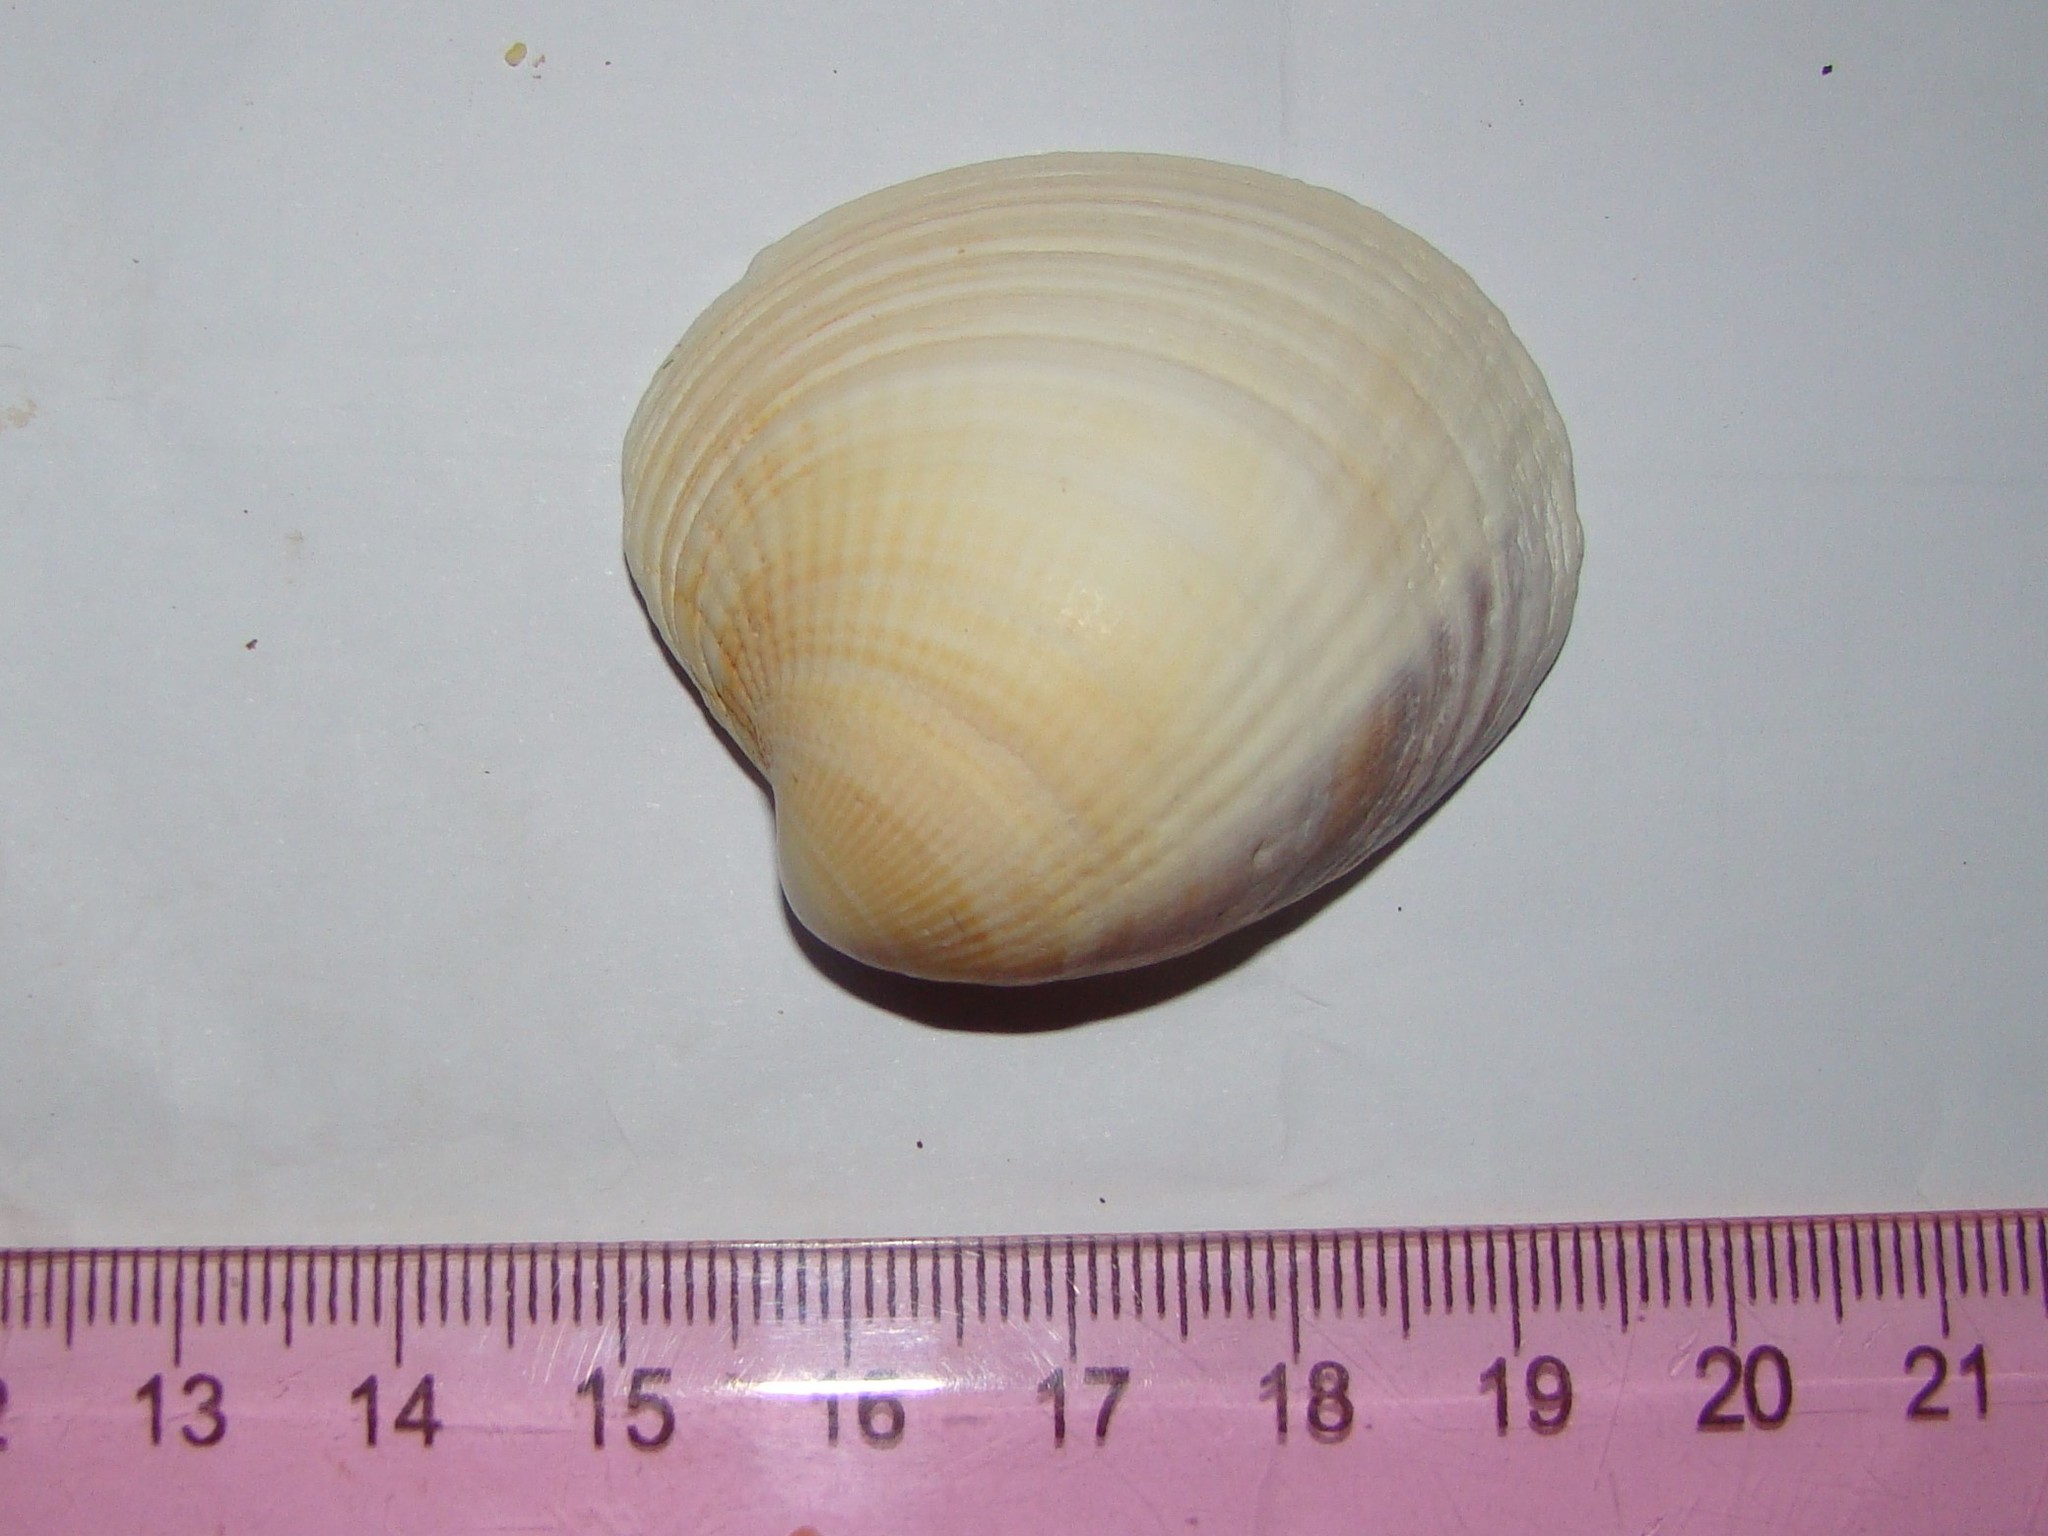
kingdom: Animalia
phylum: Mollusca
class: Bivalvia
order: Venerida
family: Veneridae
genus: Austrovenus
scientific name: Austrovenus stutchburyi
